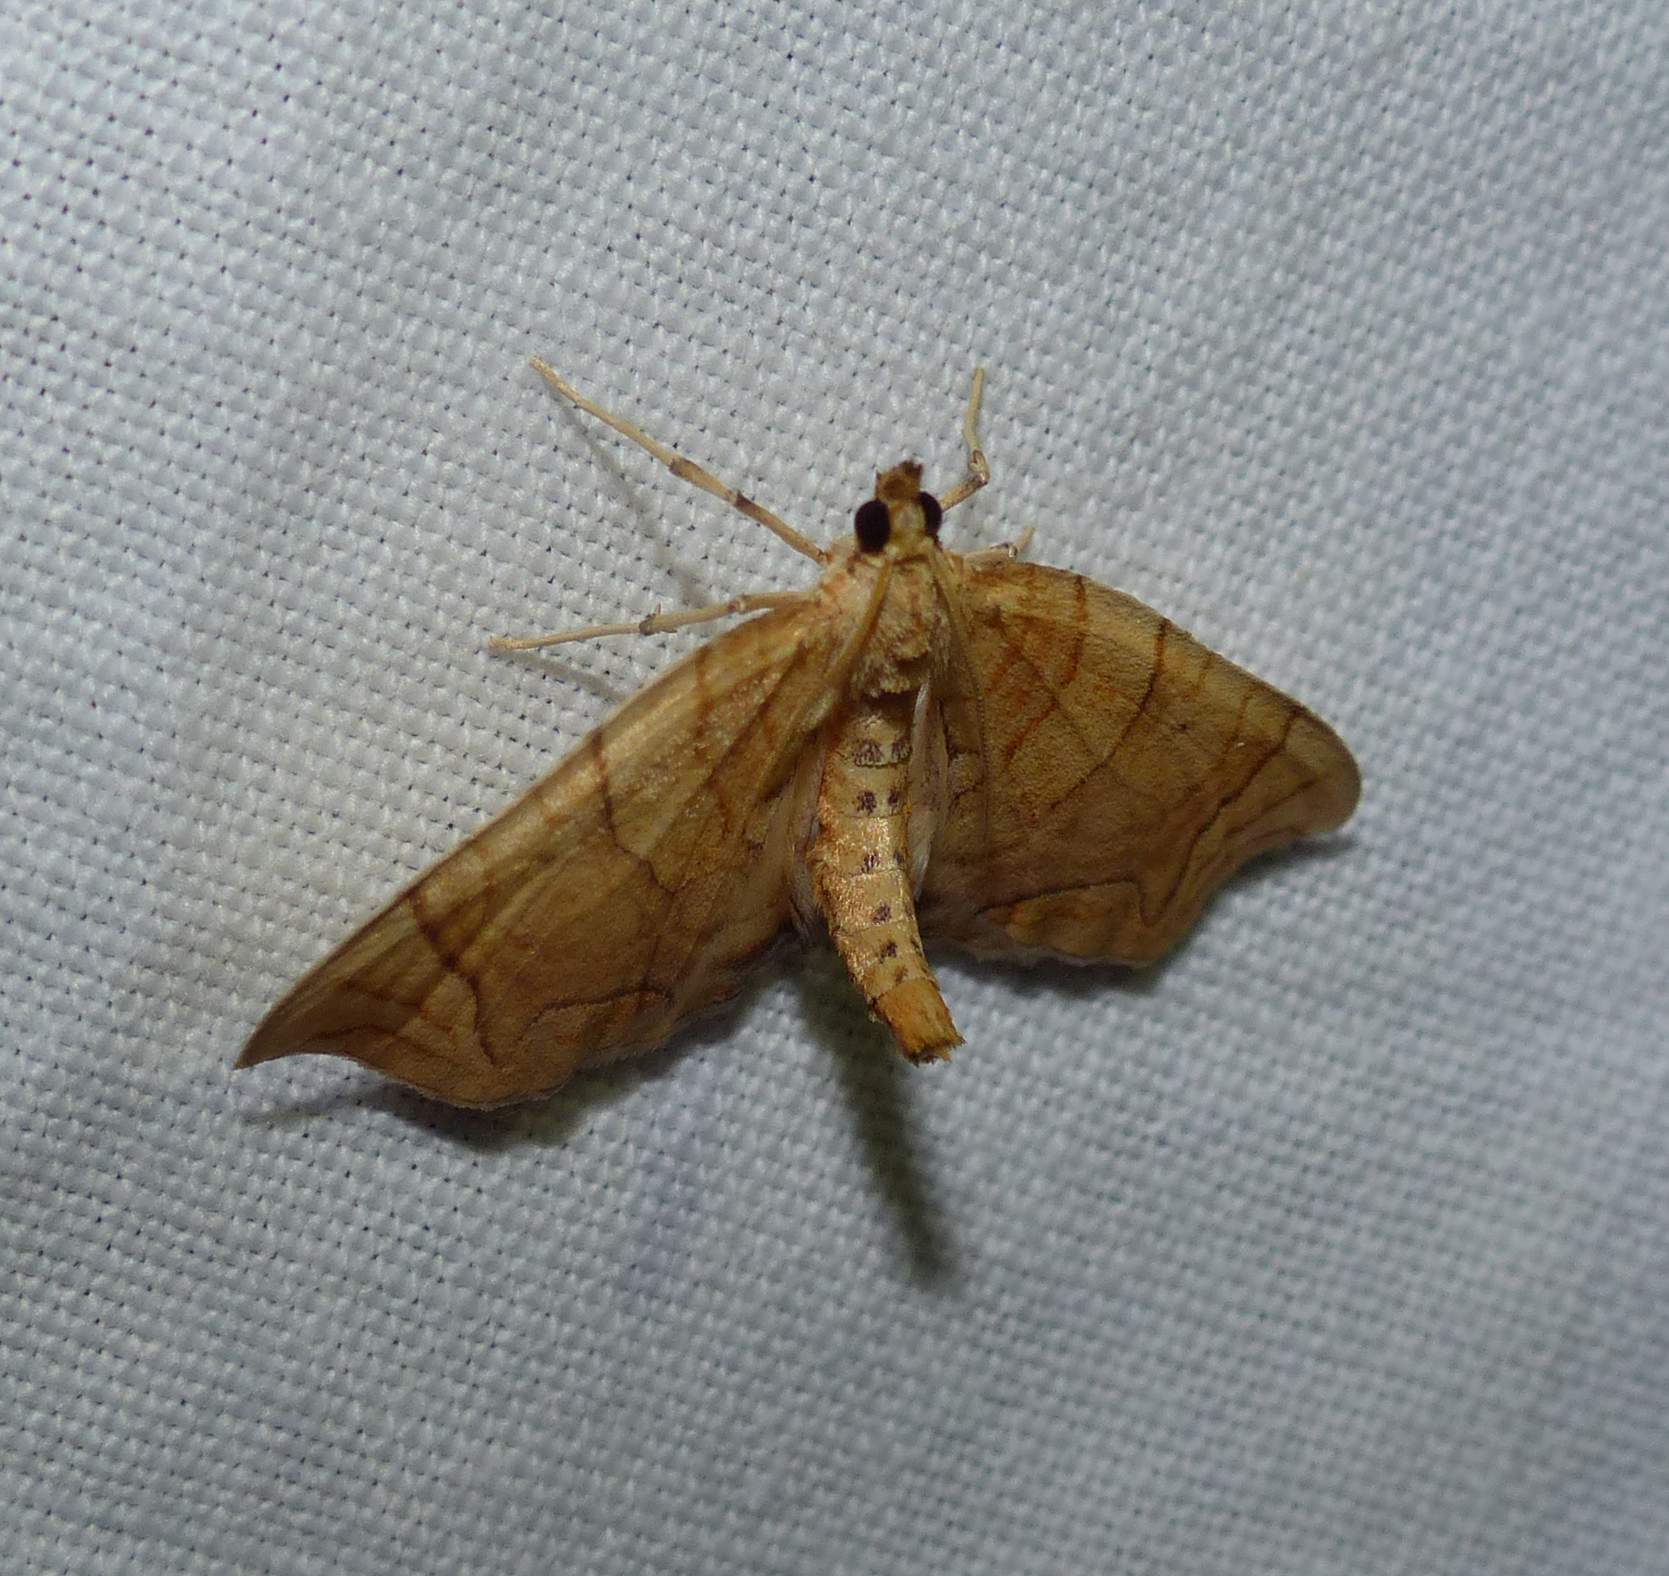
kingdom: Animalia
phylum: Arthropoda
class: Insecta
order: Lepidoptera
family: Geometridae
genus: Eulithis
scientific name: Eulithis
